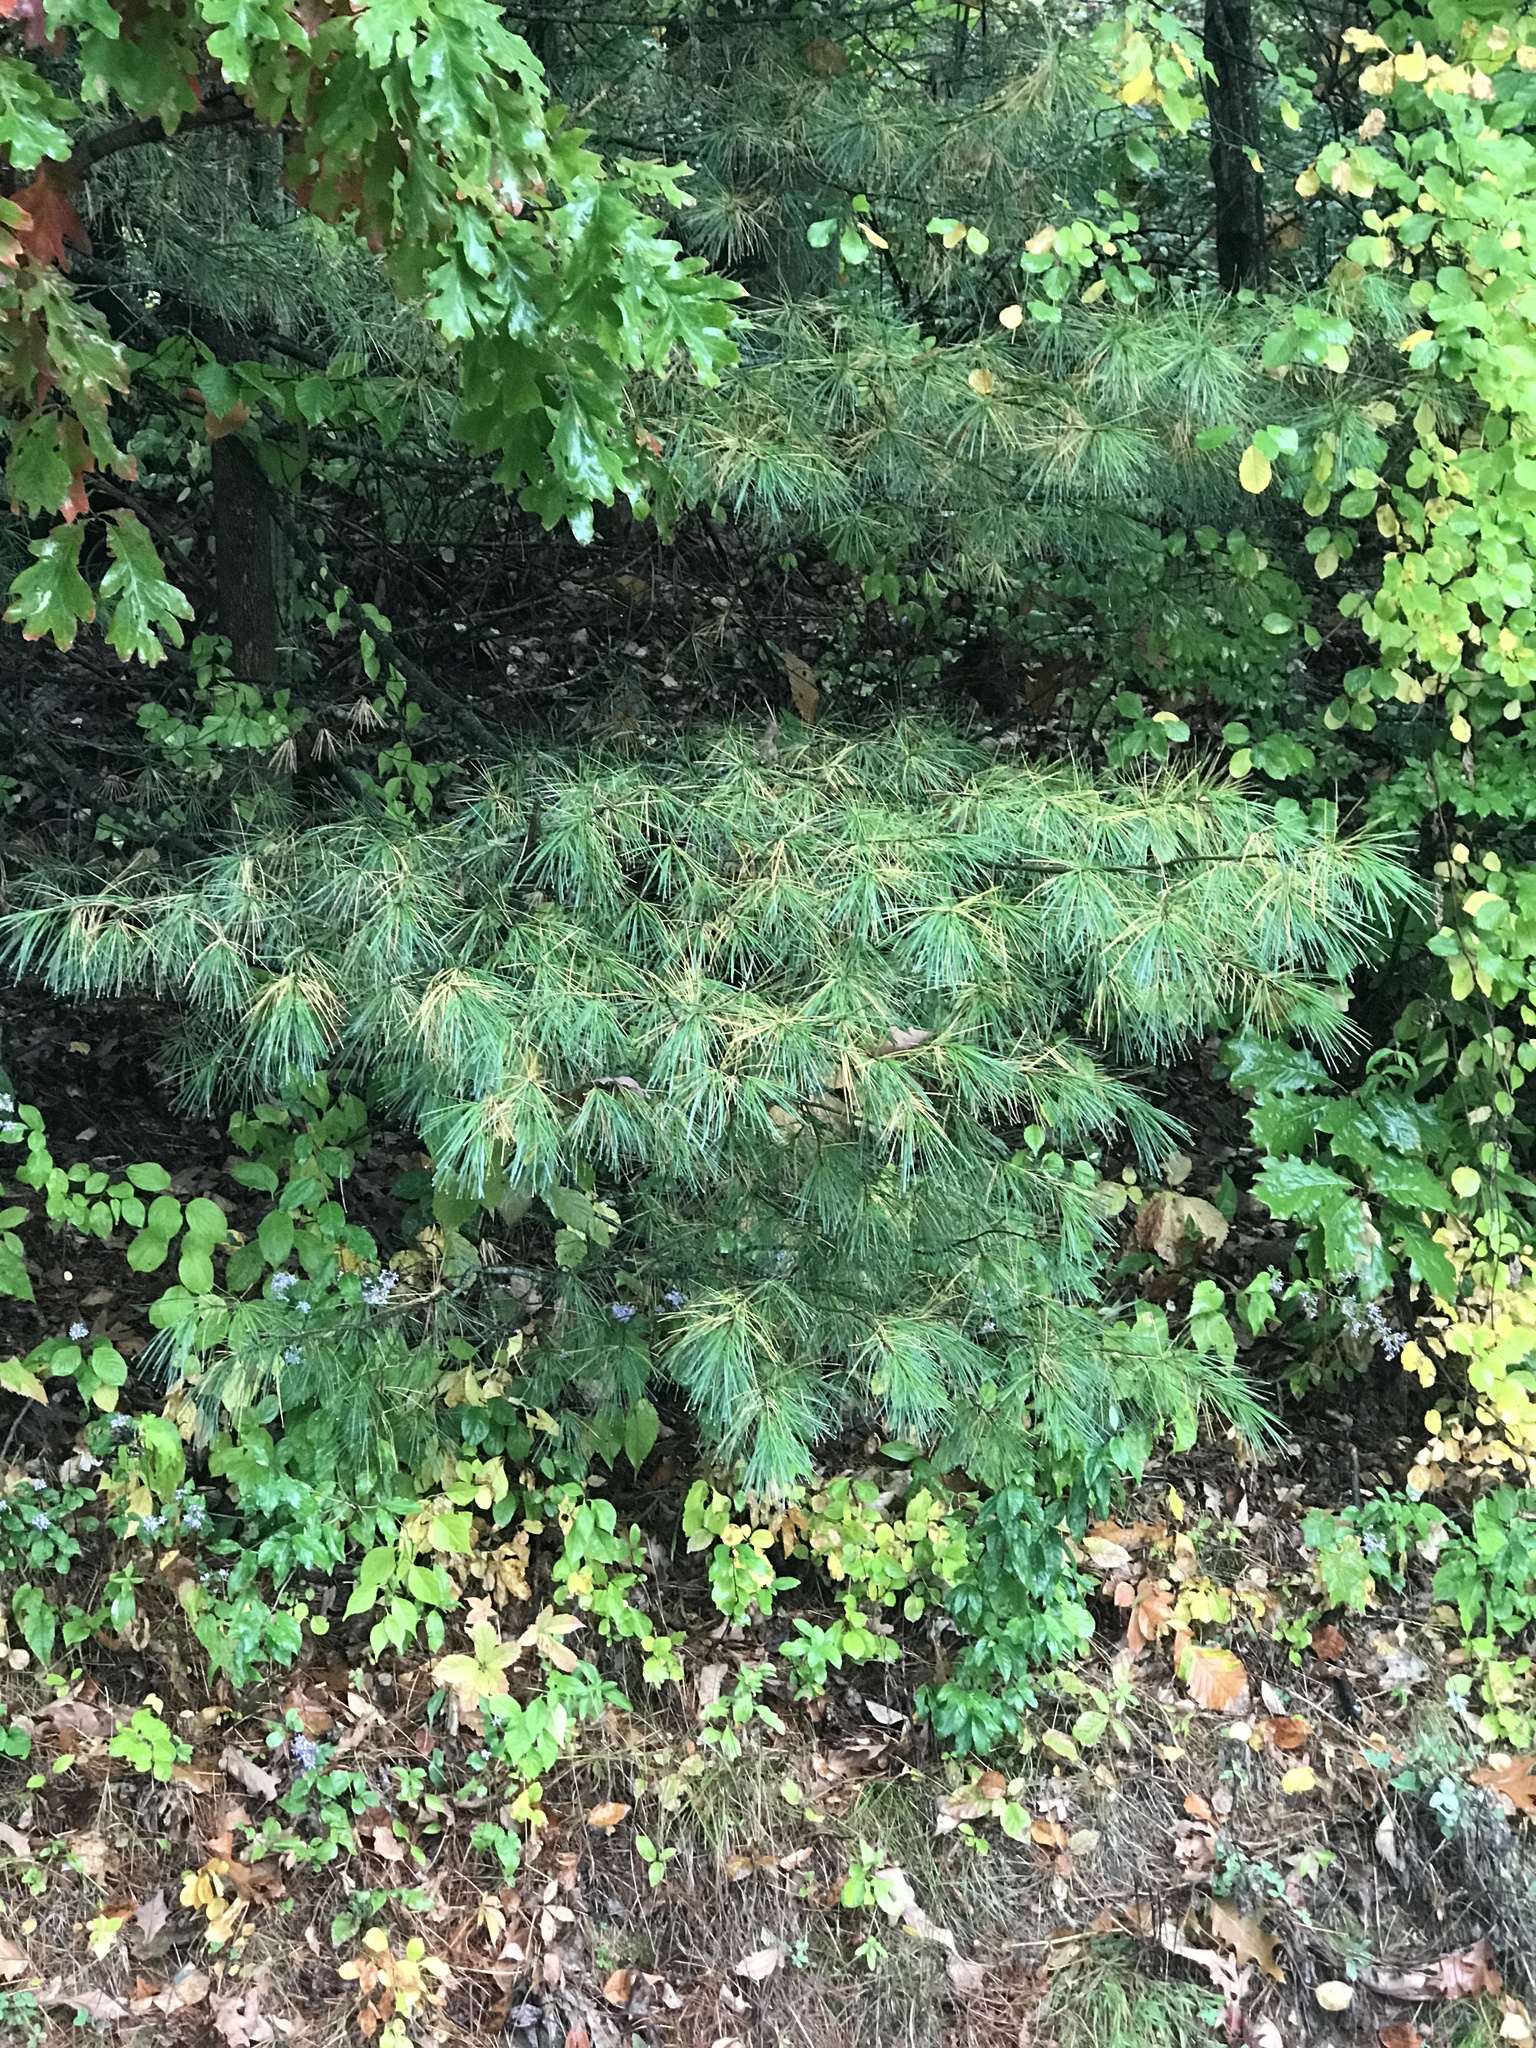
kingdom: Plantae
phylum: Tracheophyta
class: Pinopsida
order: Pinales
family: Pinaceae
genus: Pinus
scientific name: Pinus strobus
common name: Weymouth pine
